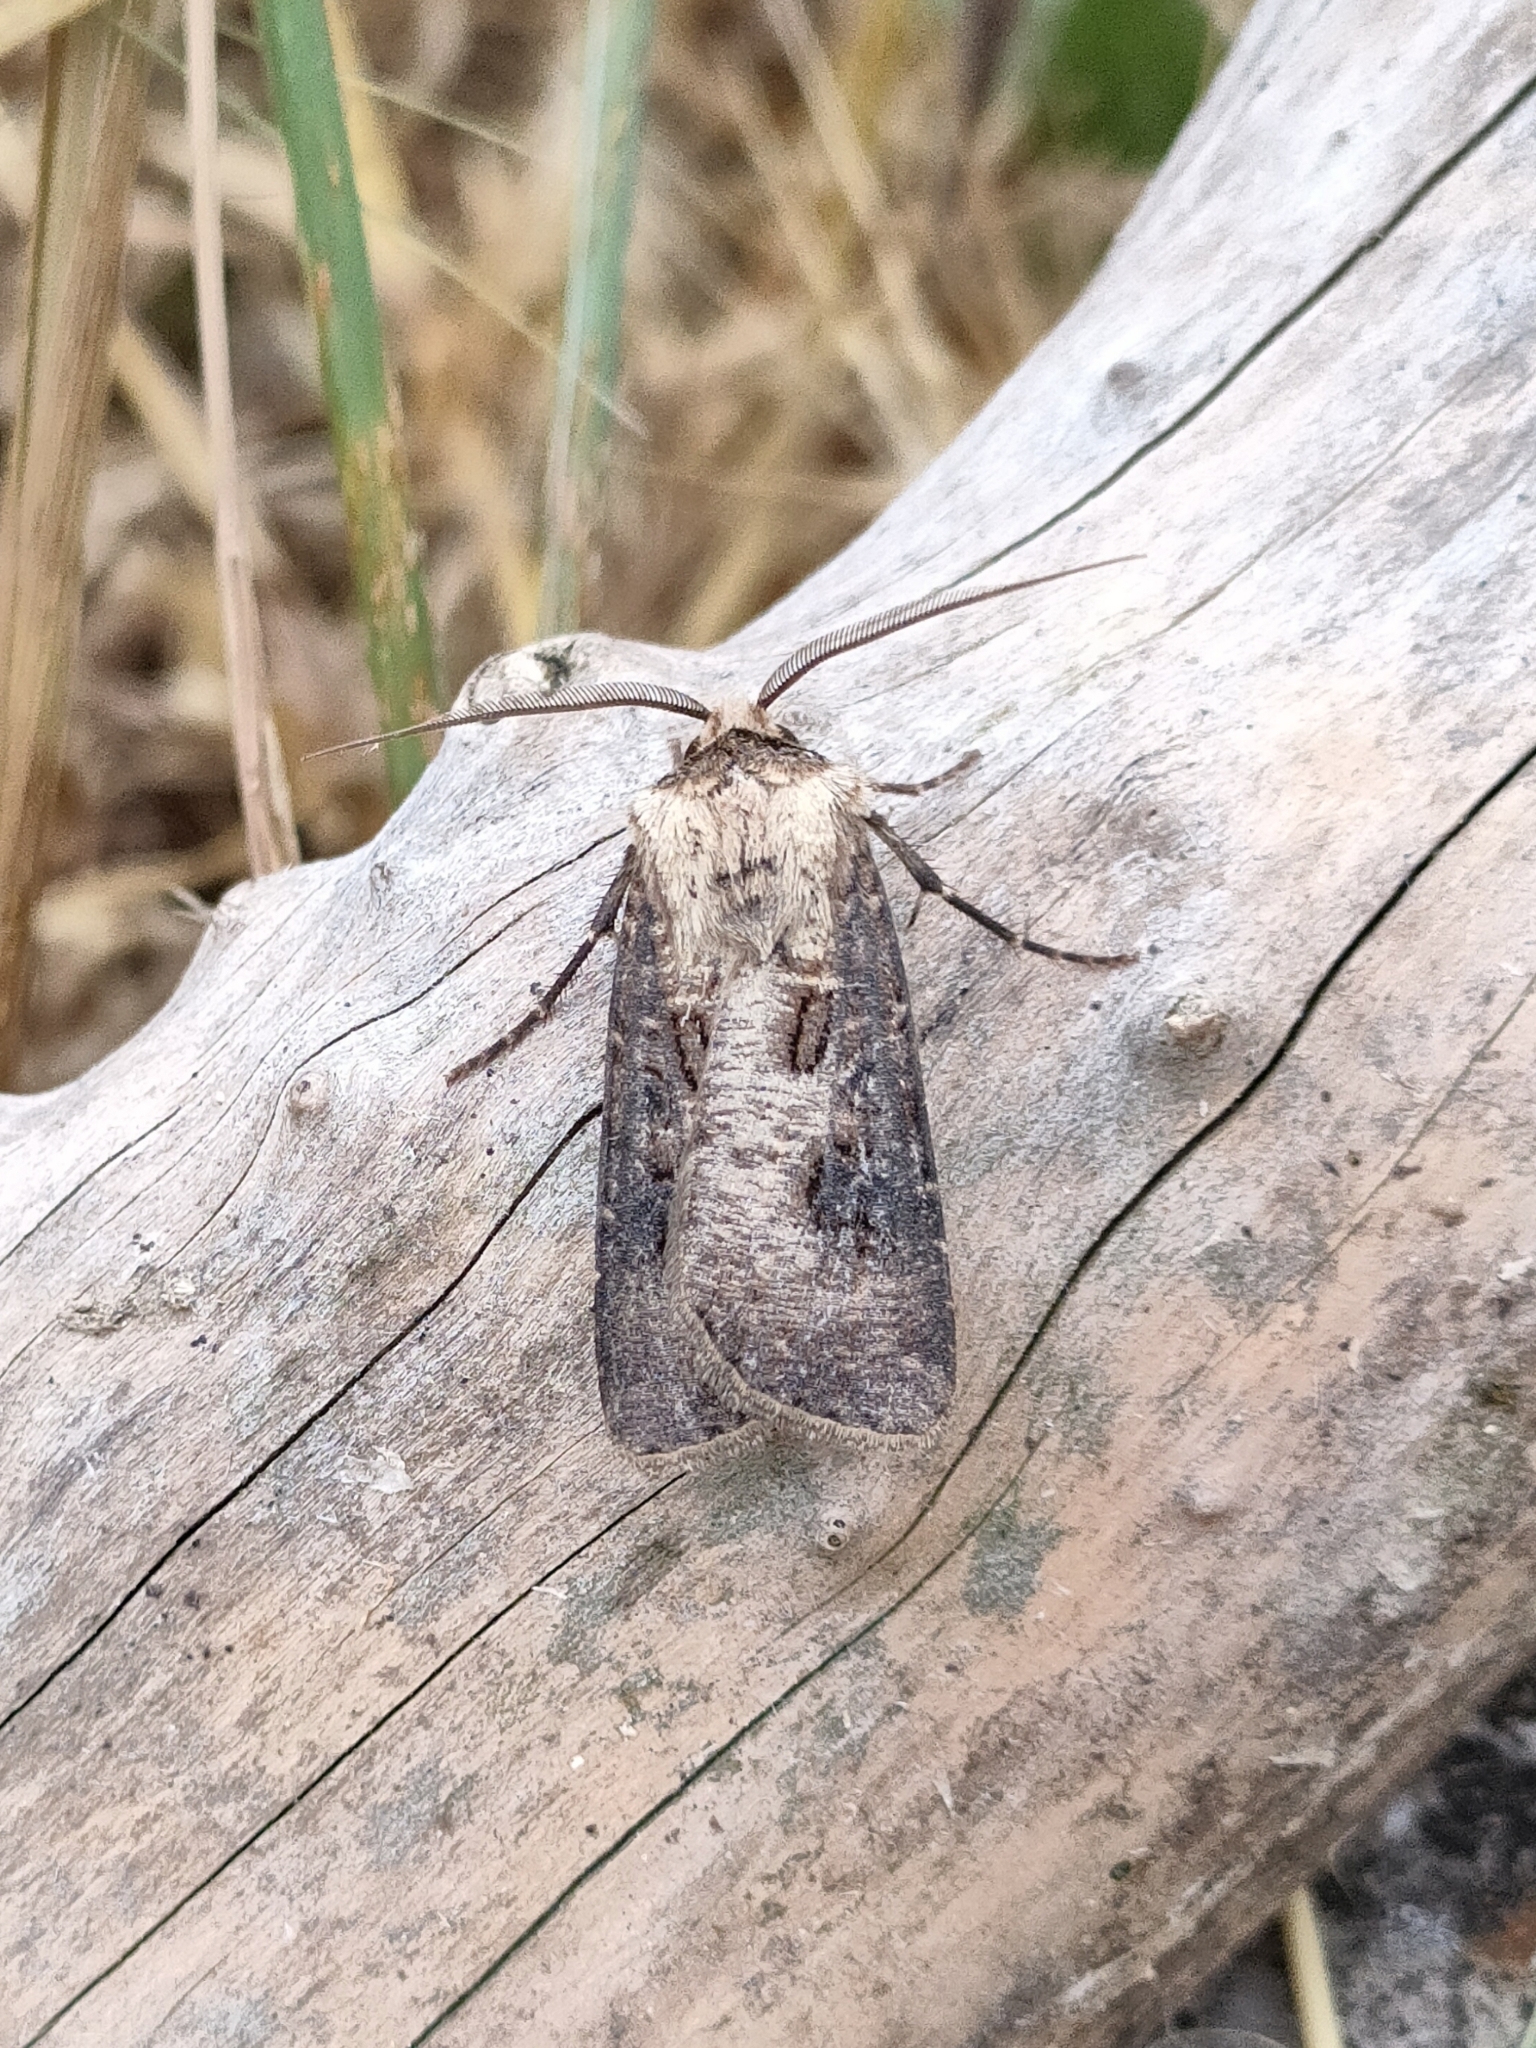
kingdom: Animalia
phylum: Arthropoda
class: Insecta
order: Lepidoptera
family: Noctuidae
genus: Agrotis
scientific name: Agrotis clavis
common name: Heart and club
